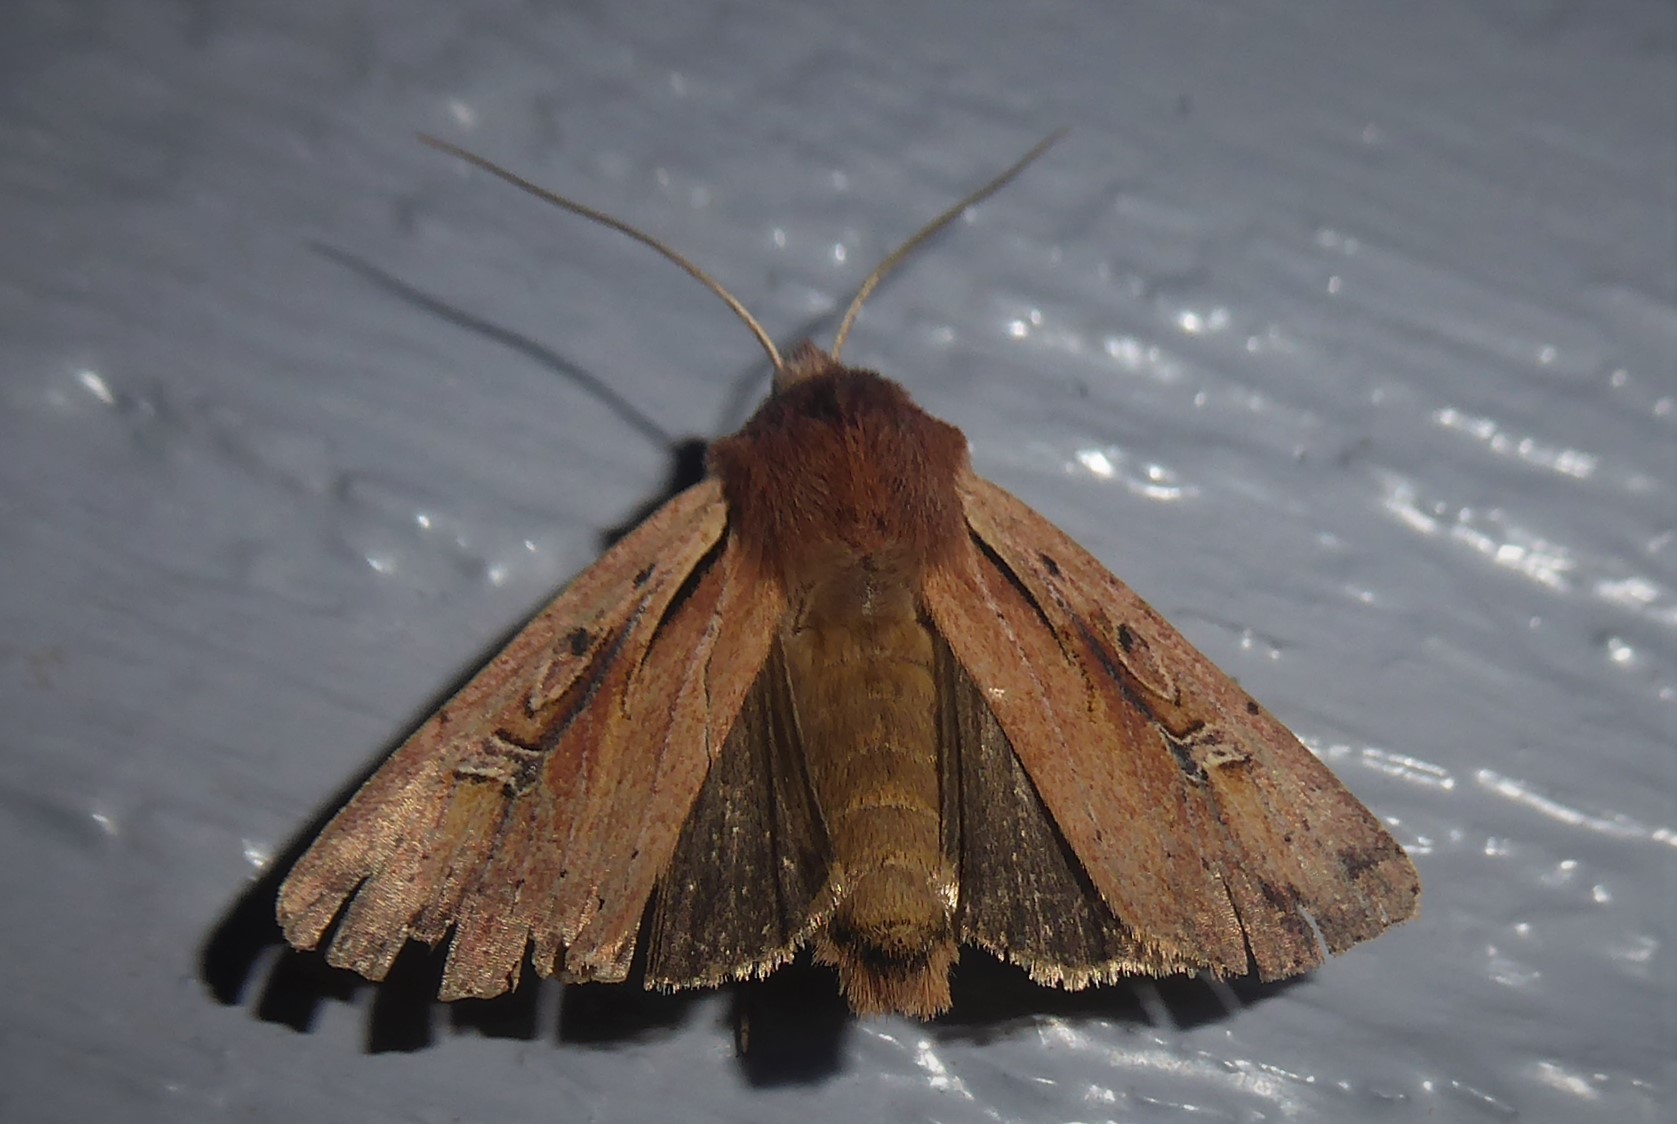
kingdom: Animalia
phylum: Arthropoda
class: Insecta
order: Lepidoptera
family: Noctuidae
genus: Ichneutica
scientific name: Ichneutica atristriga
